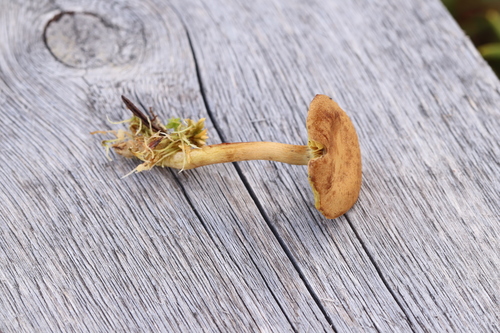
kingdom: Fungi
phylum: Basidiomycota
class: Agaricomycetes
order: Agaricales
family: Cortinariaceae
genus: Cortinarius
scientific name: Cortinarius chrysolitus
